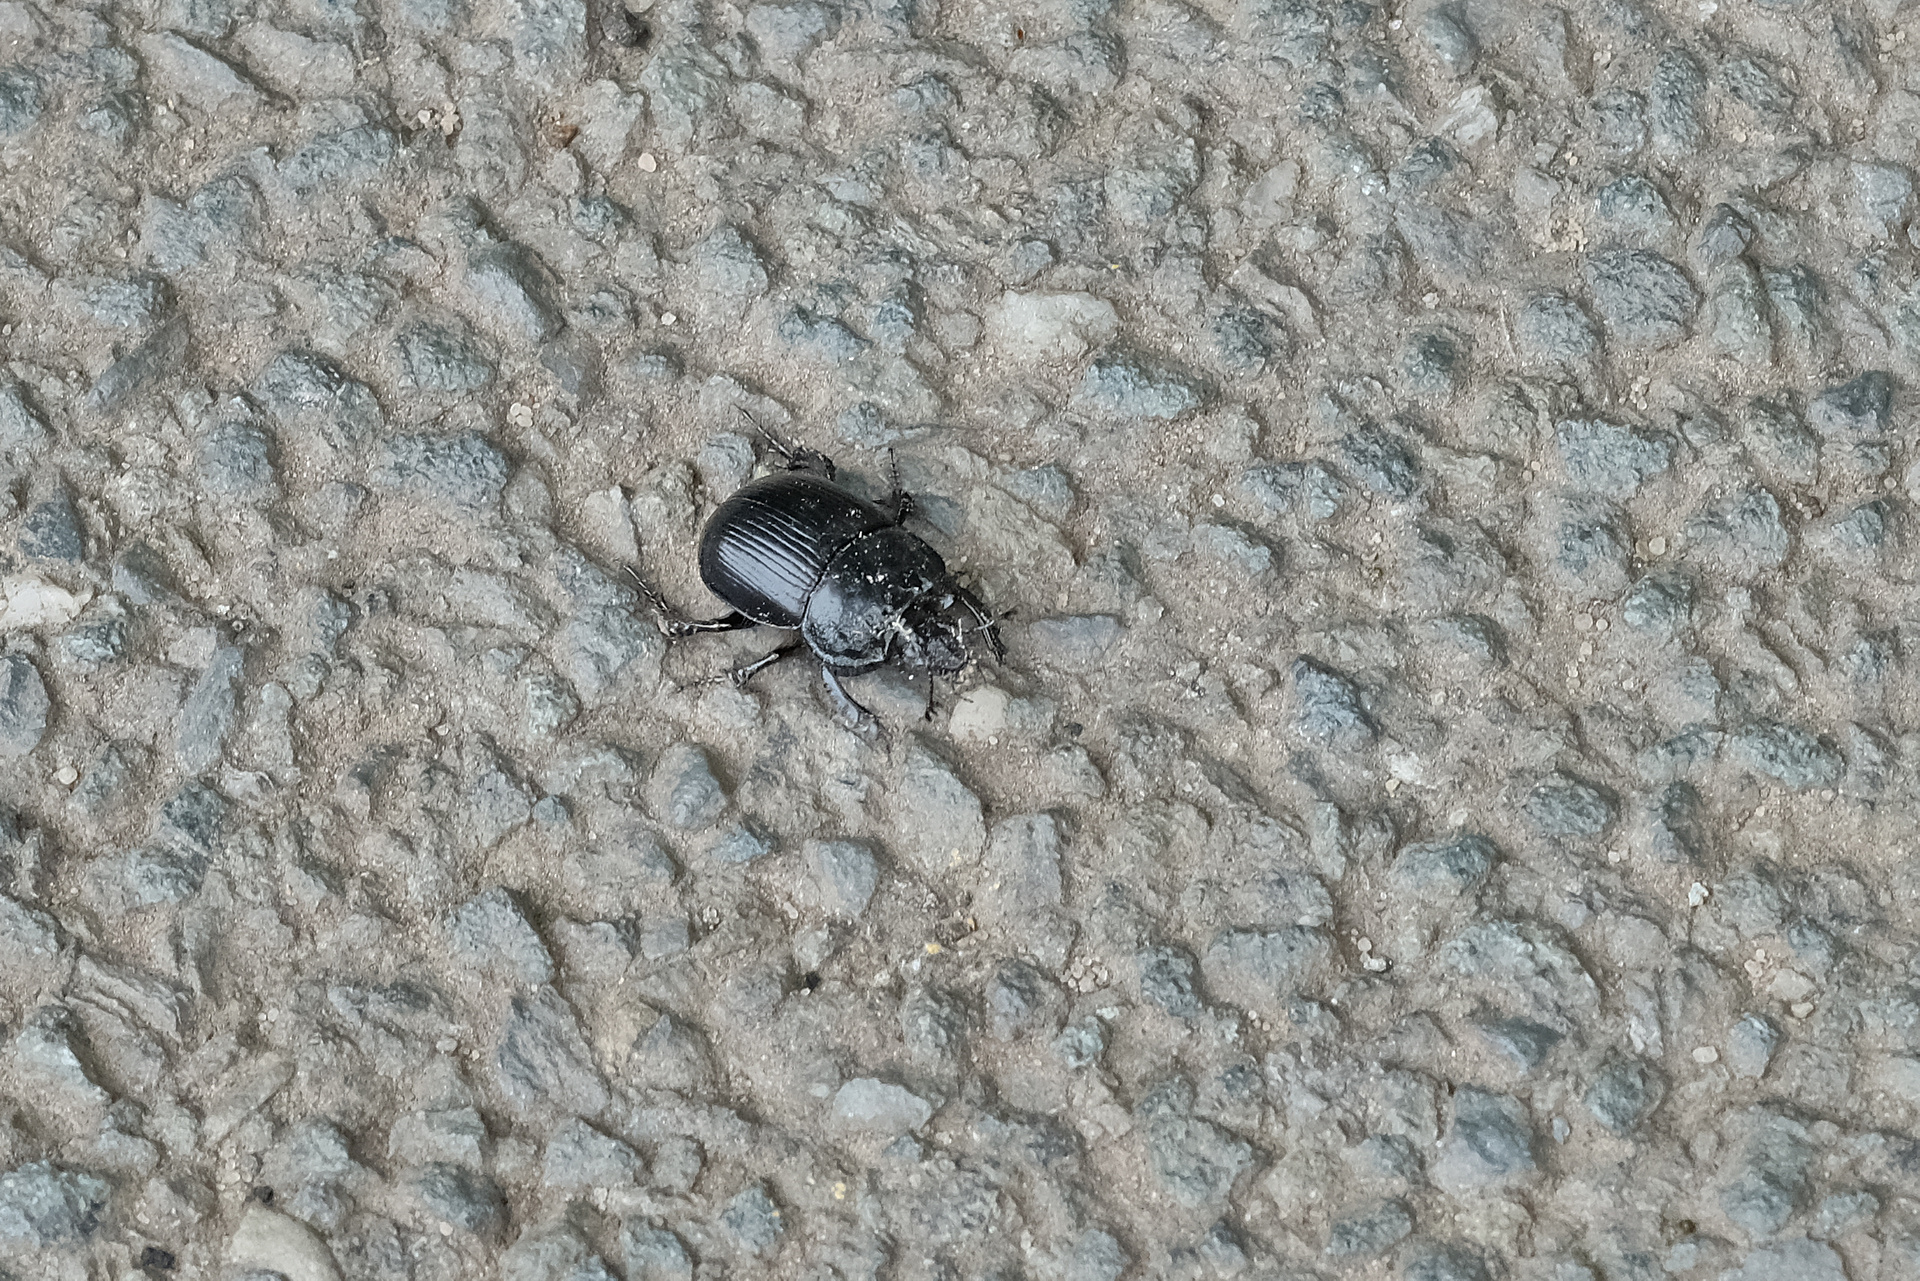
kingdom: Animalia
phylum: Arthropoda
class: Insecta
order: Coleoptera
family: Geotrupidae
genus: Typhaeus
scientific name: Typhaeus typhoeus
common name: Minotaur beetle
